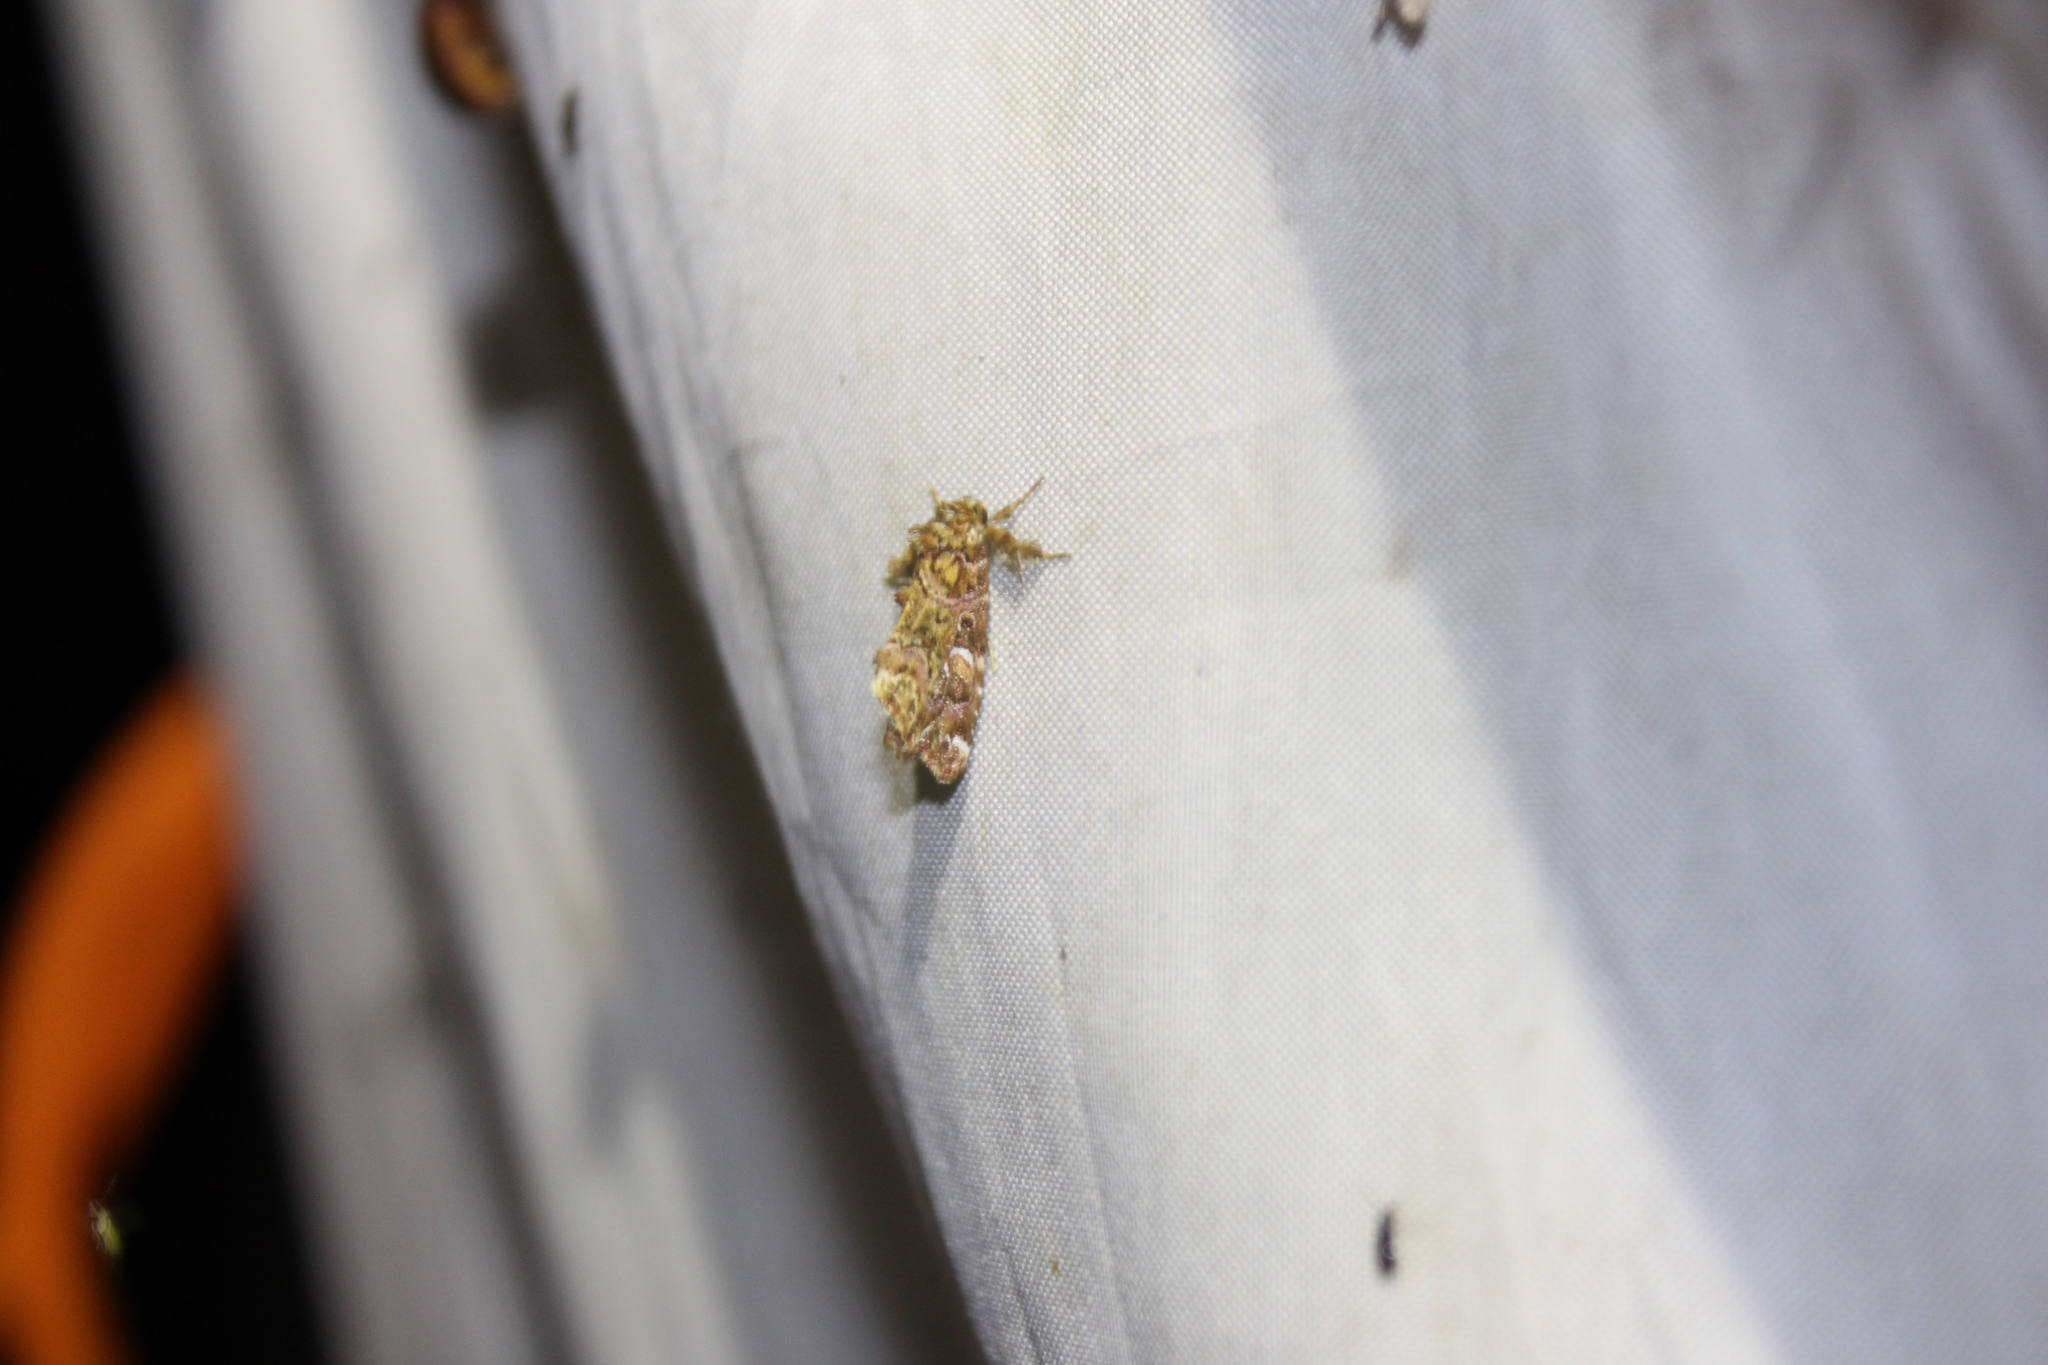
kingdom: Animalia
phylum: Arthropoda
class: Insecta
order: Lepidoptera
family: Noctuidae
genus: Callopistria
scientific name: Callopistria mollissima
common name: Pink-shaded fern moth
